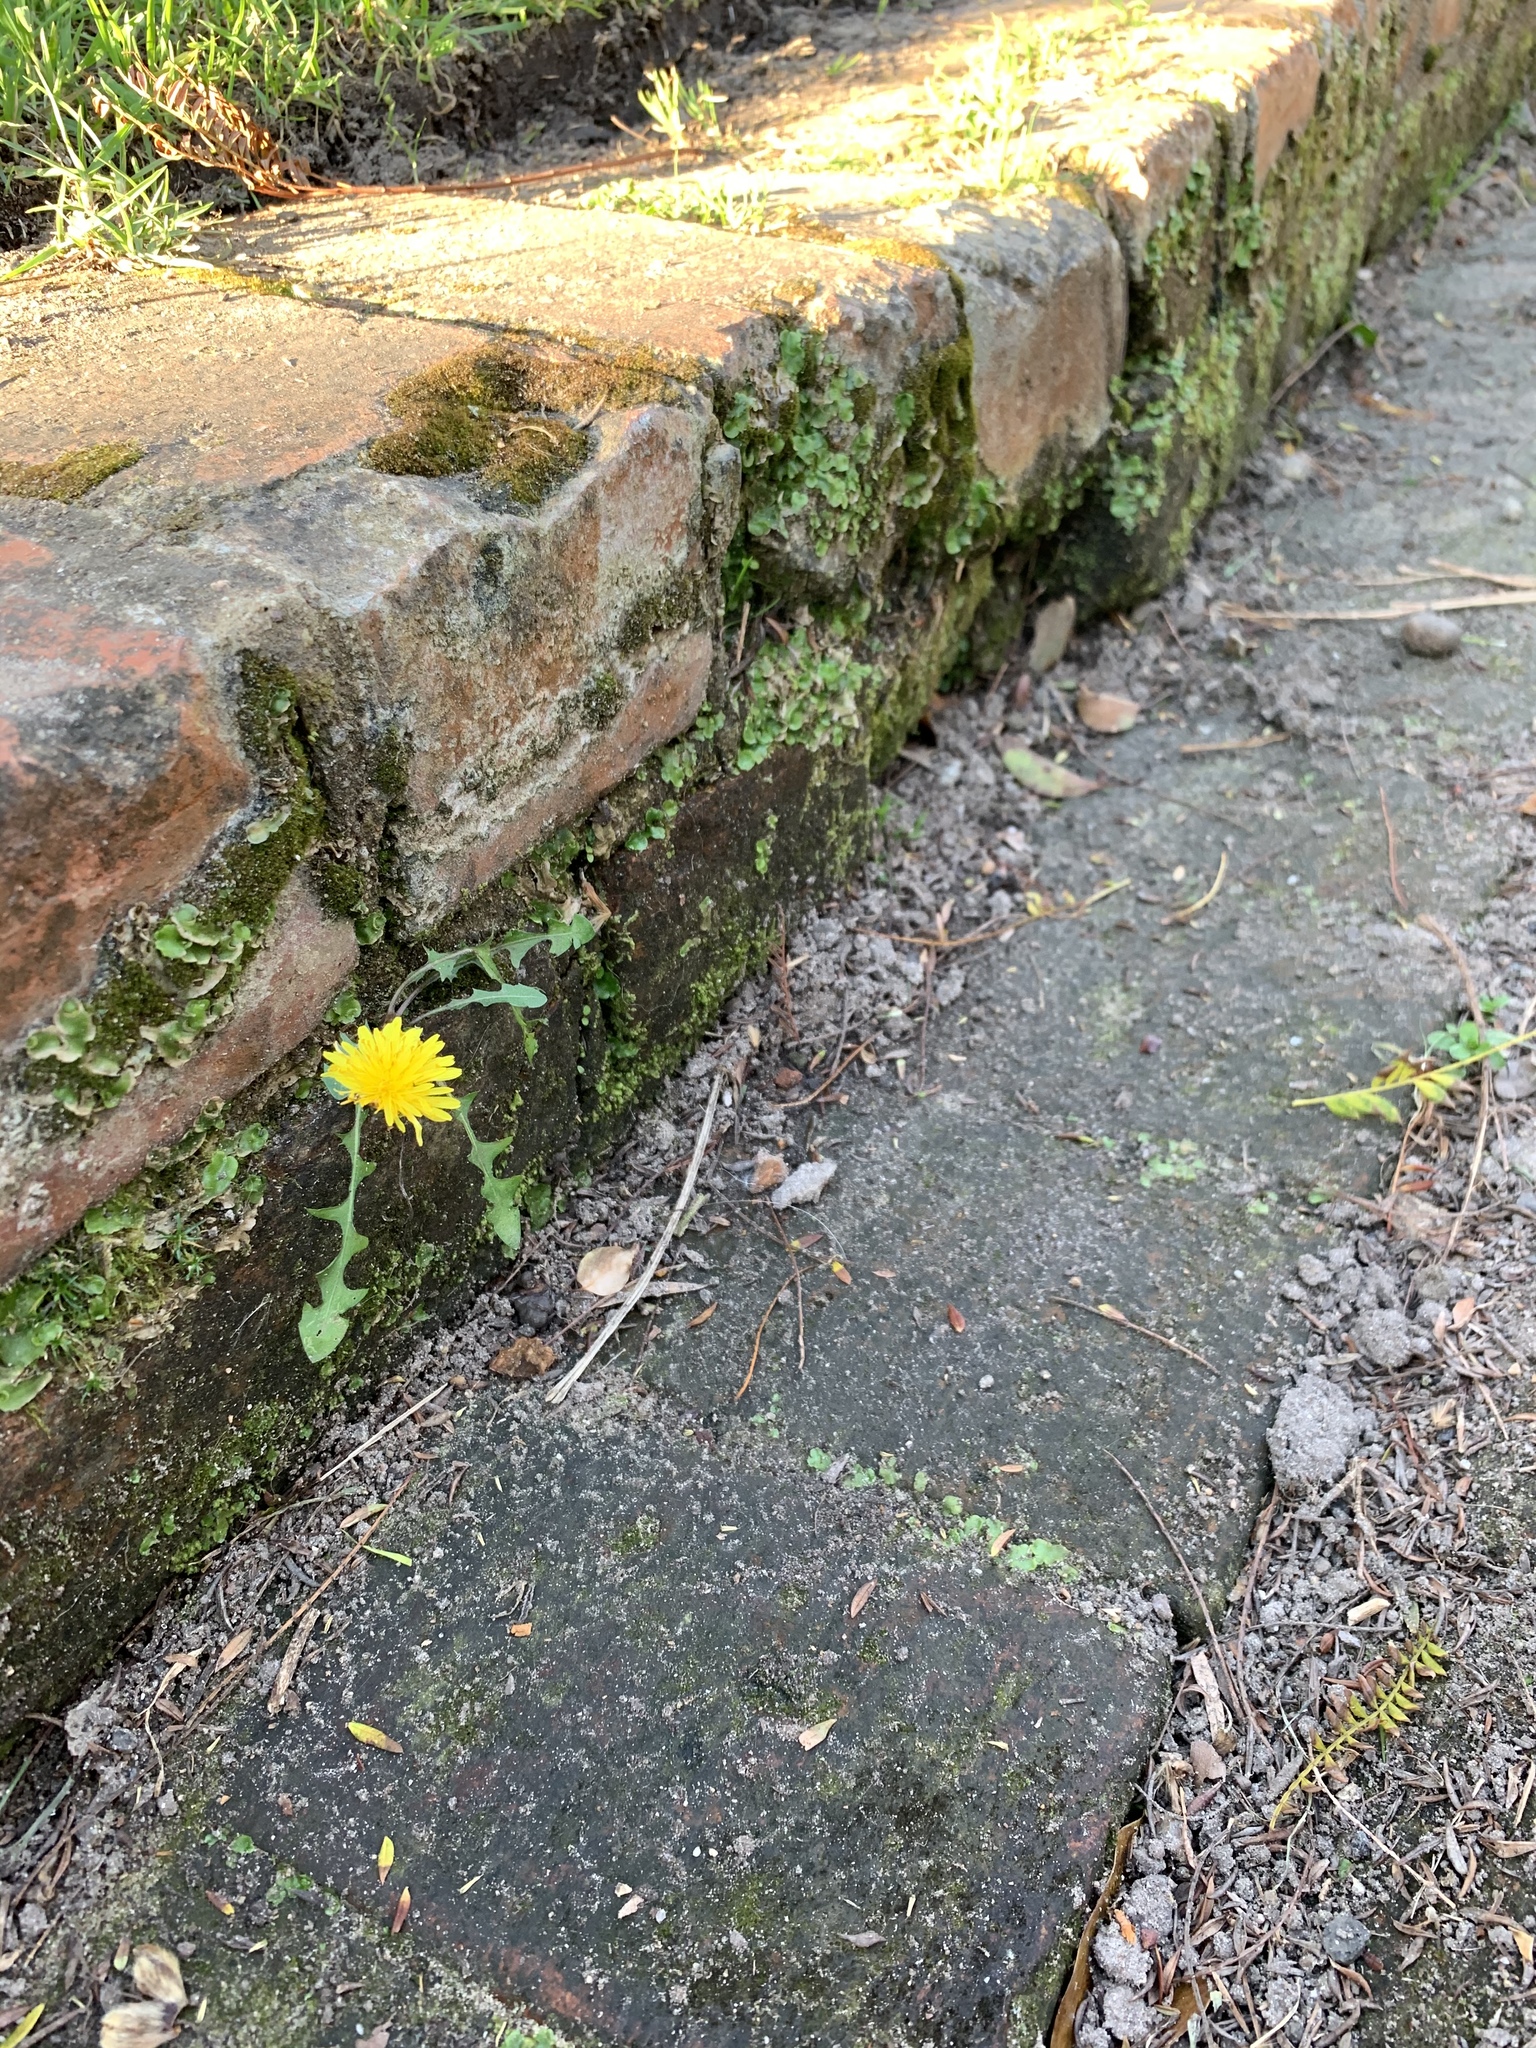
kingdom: Plantae
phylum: Tracheophyta
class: Magnoliopsida
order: Asterales
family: Asteraceae
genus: Taraxacum
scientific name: Taraxacum officinale
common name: Common dandelion
